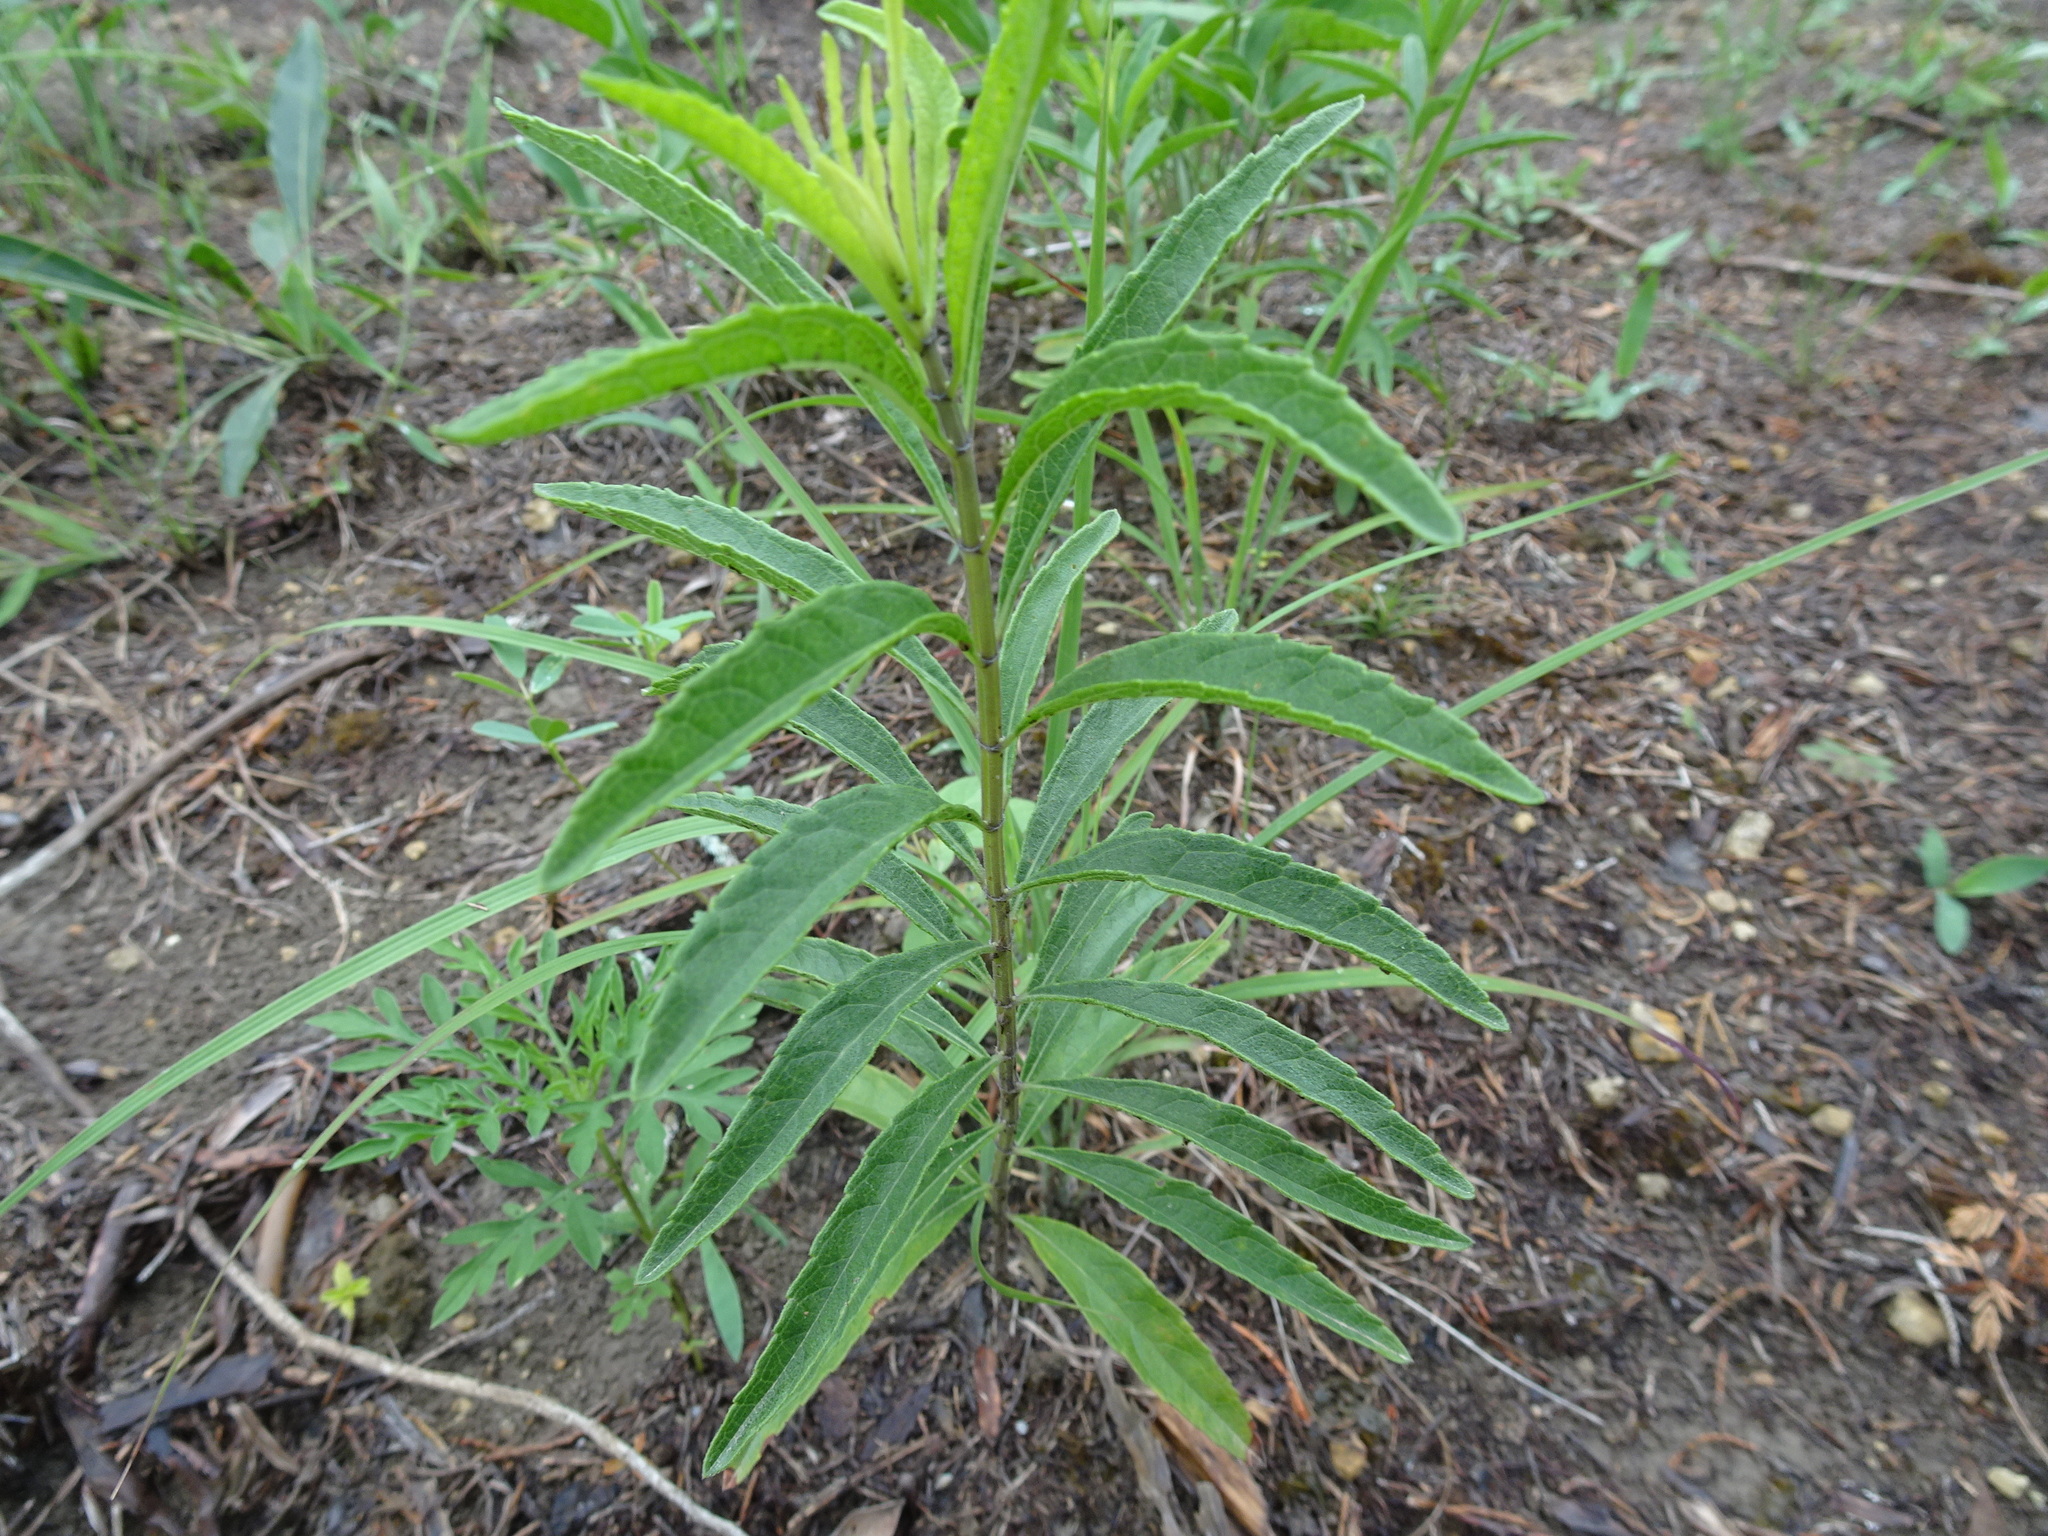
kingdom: Plantae
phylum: Tracheophyta
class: Magnoliopsida
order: Lamiales
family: Lamiaceae
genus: Salvia
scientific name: Salvia azurea
